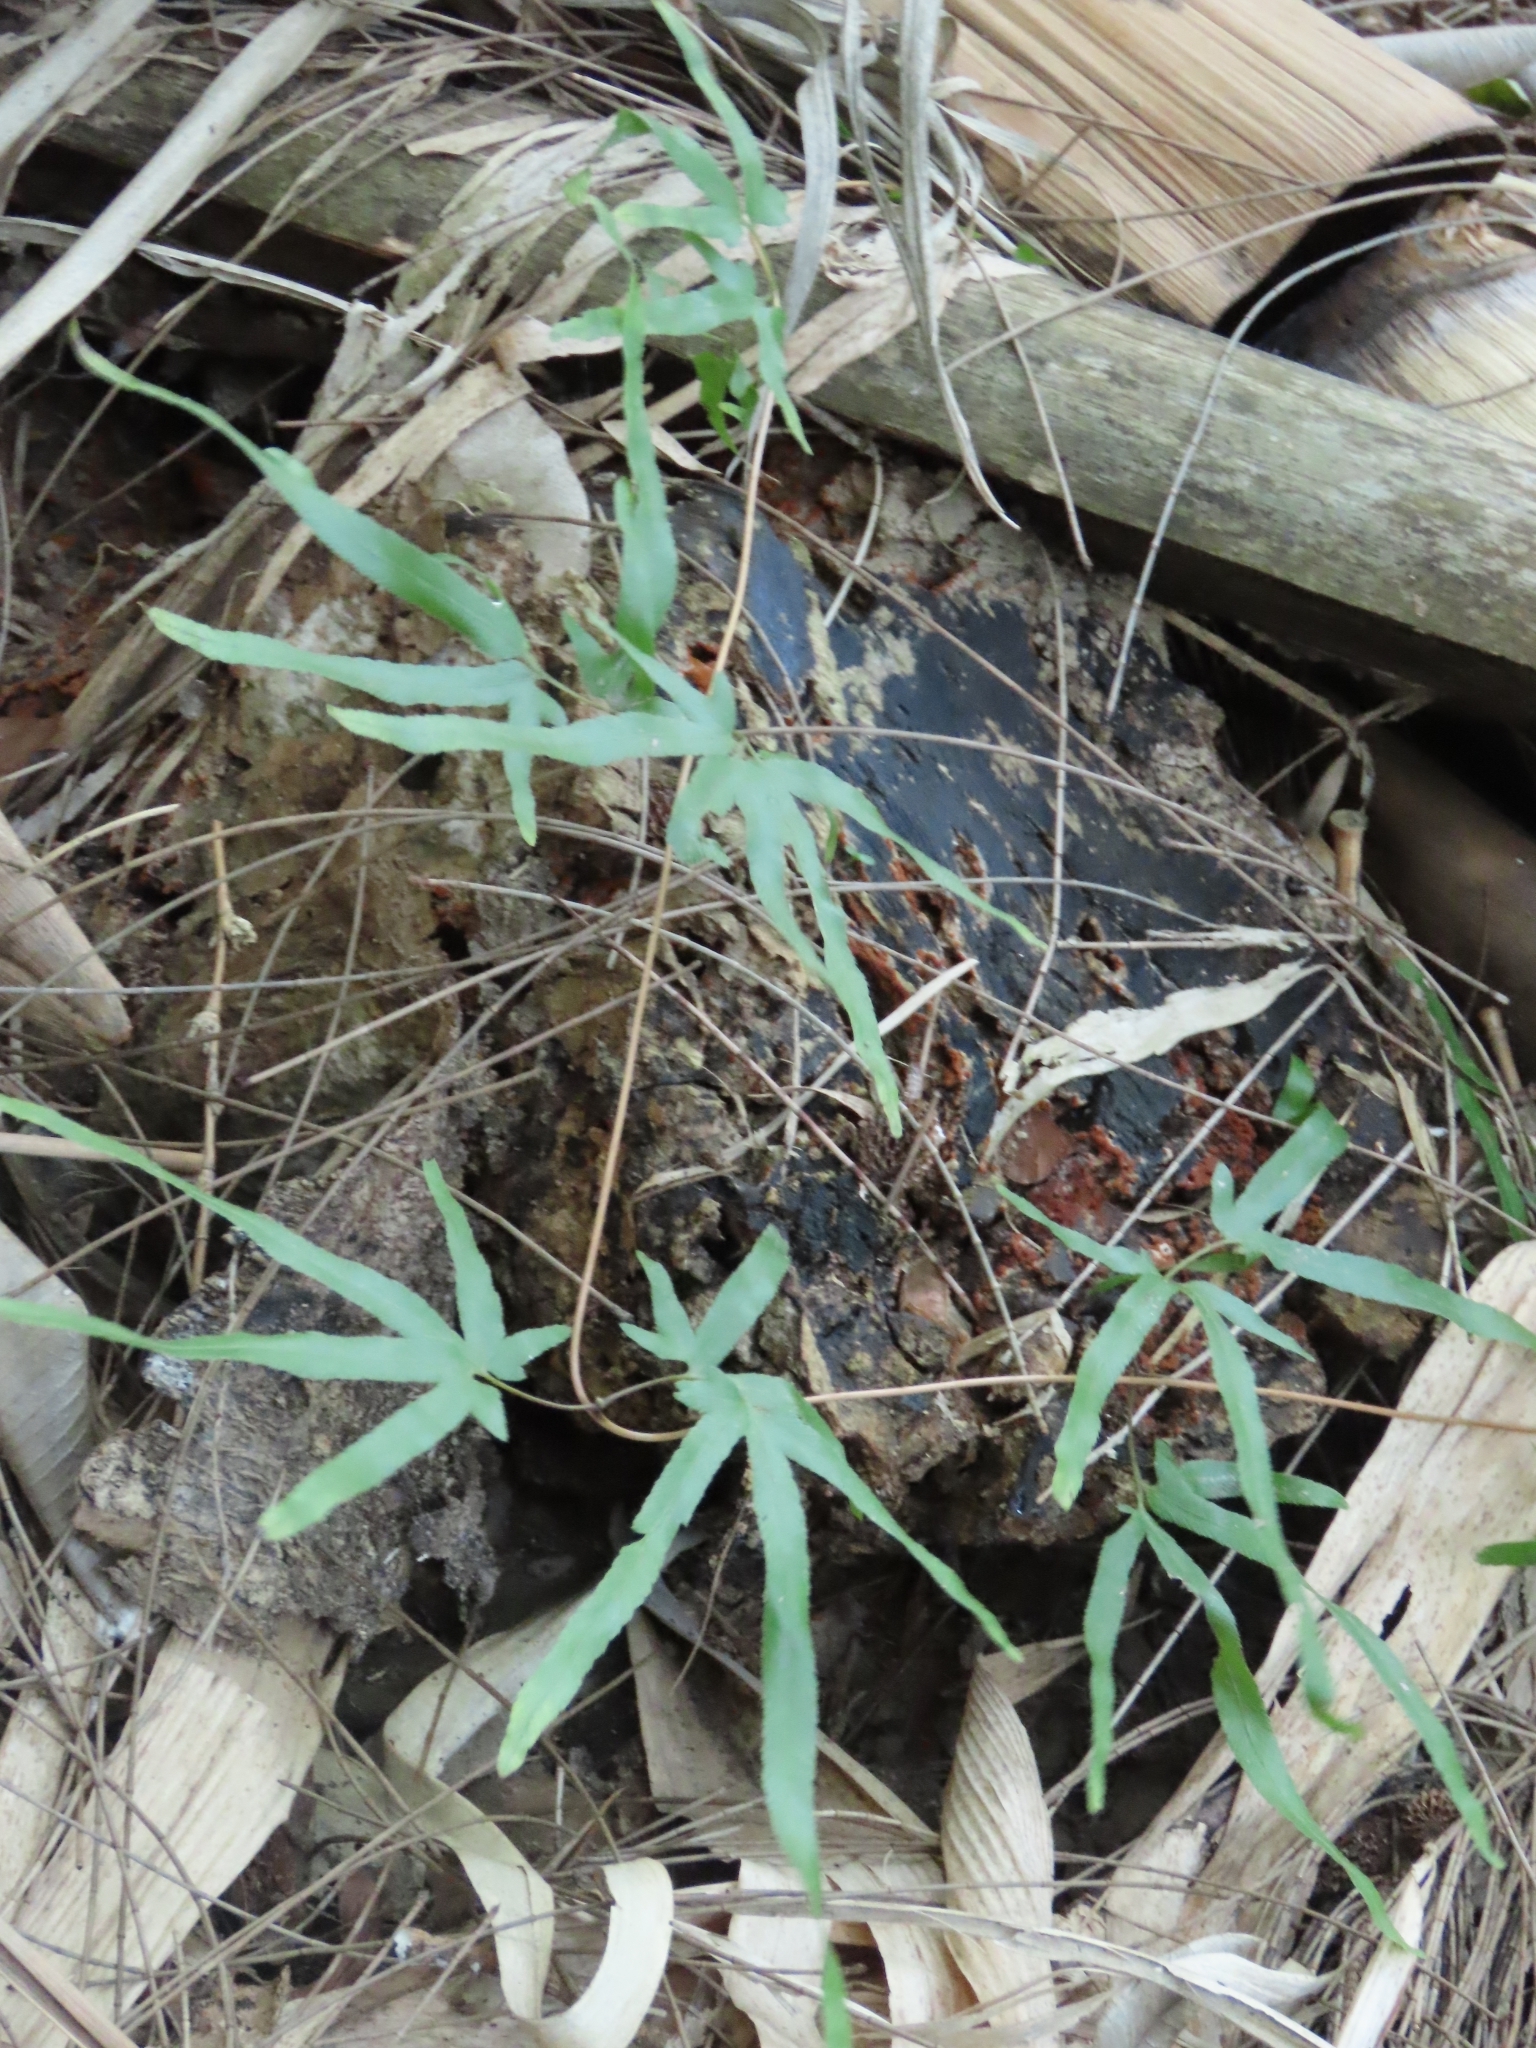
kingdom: Plantae
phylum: Tracheophyta
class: Polypodiopsida
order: Schizaeales
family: Lygodiaceae
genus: Lygodium
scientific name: Lygodium japonicum
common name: Japanese climbing fern
